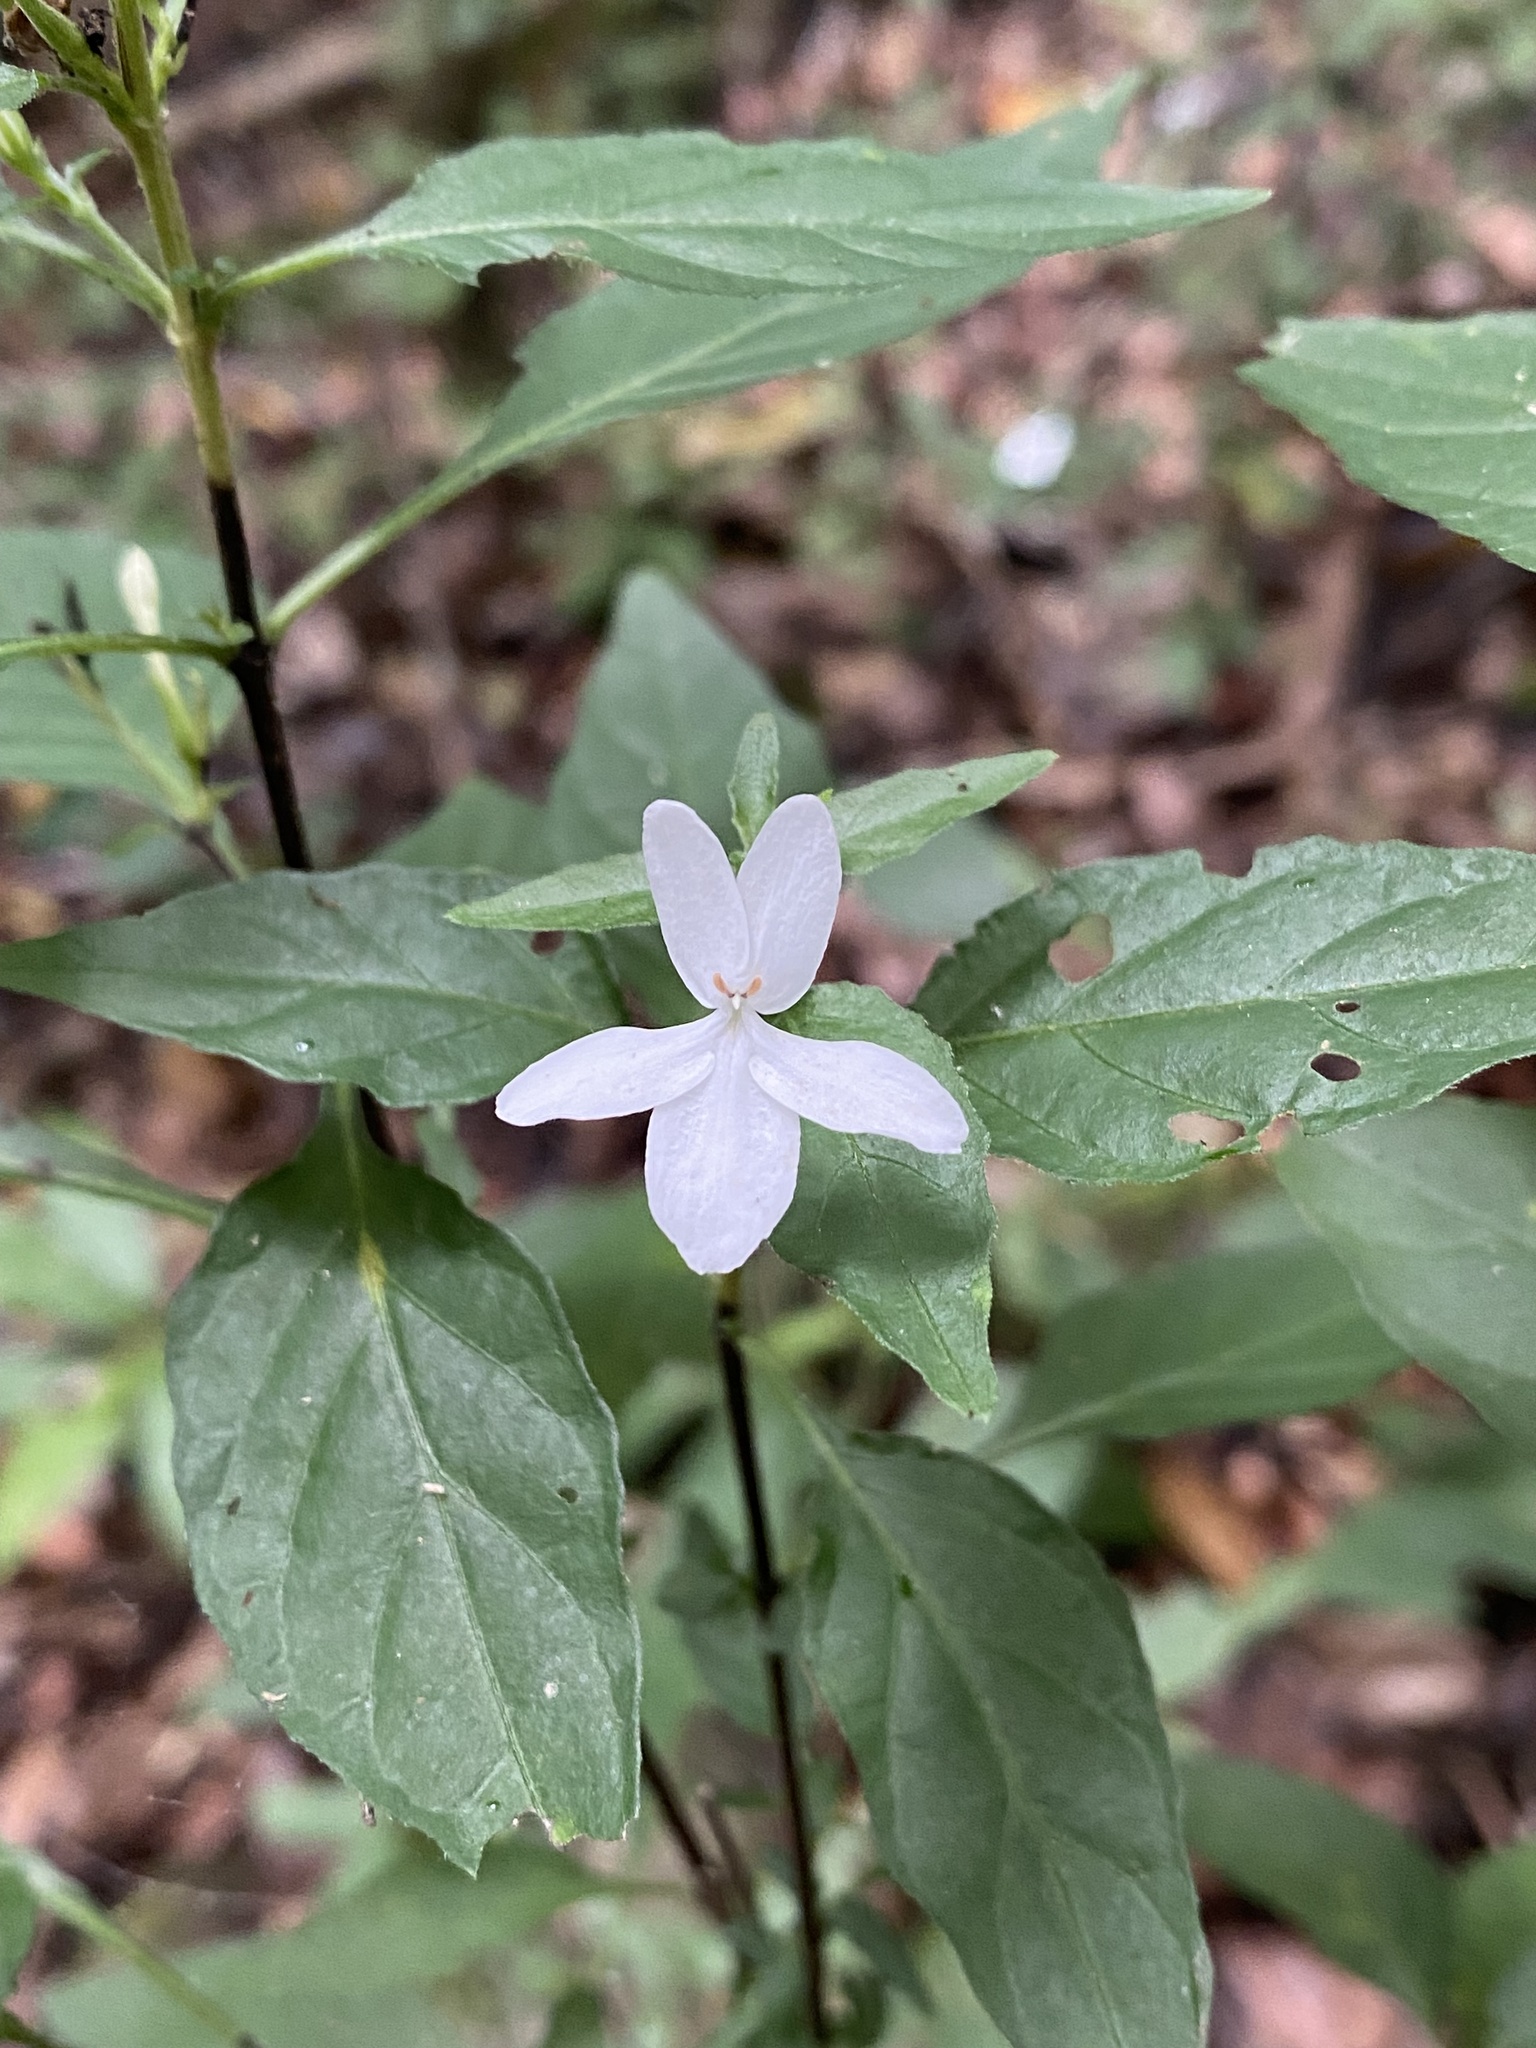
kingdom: Plantae
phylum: Tracheophyta
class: Magnoliopsida
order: Lamiales
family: Acanthaceae
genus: Pseuderanthemum
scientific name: Pseuderanthemum variabile
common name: Night and afternoon
